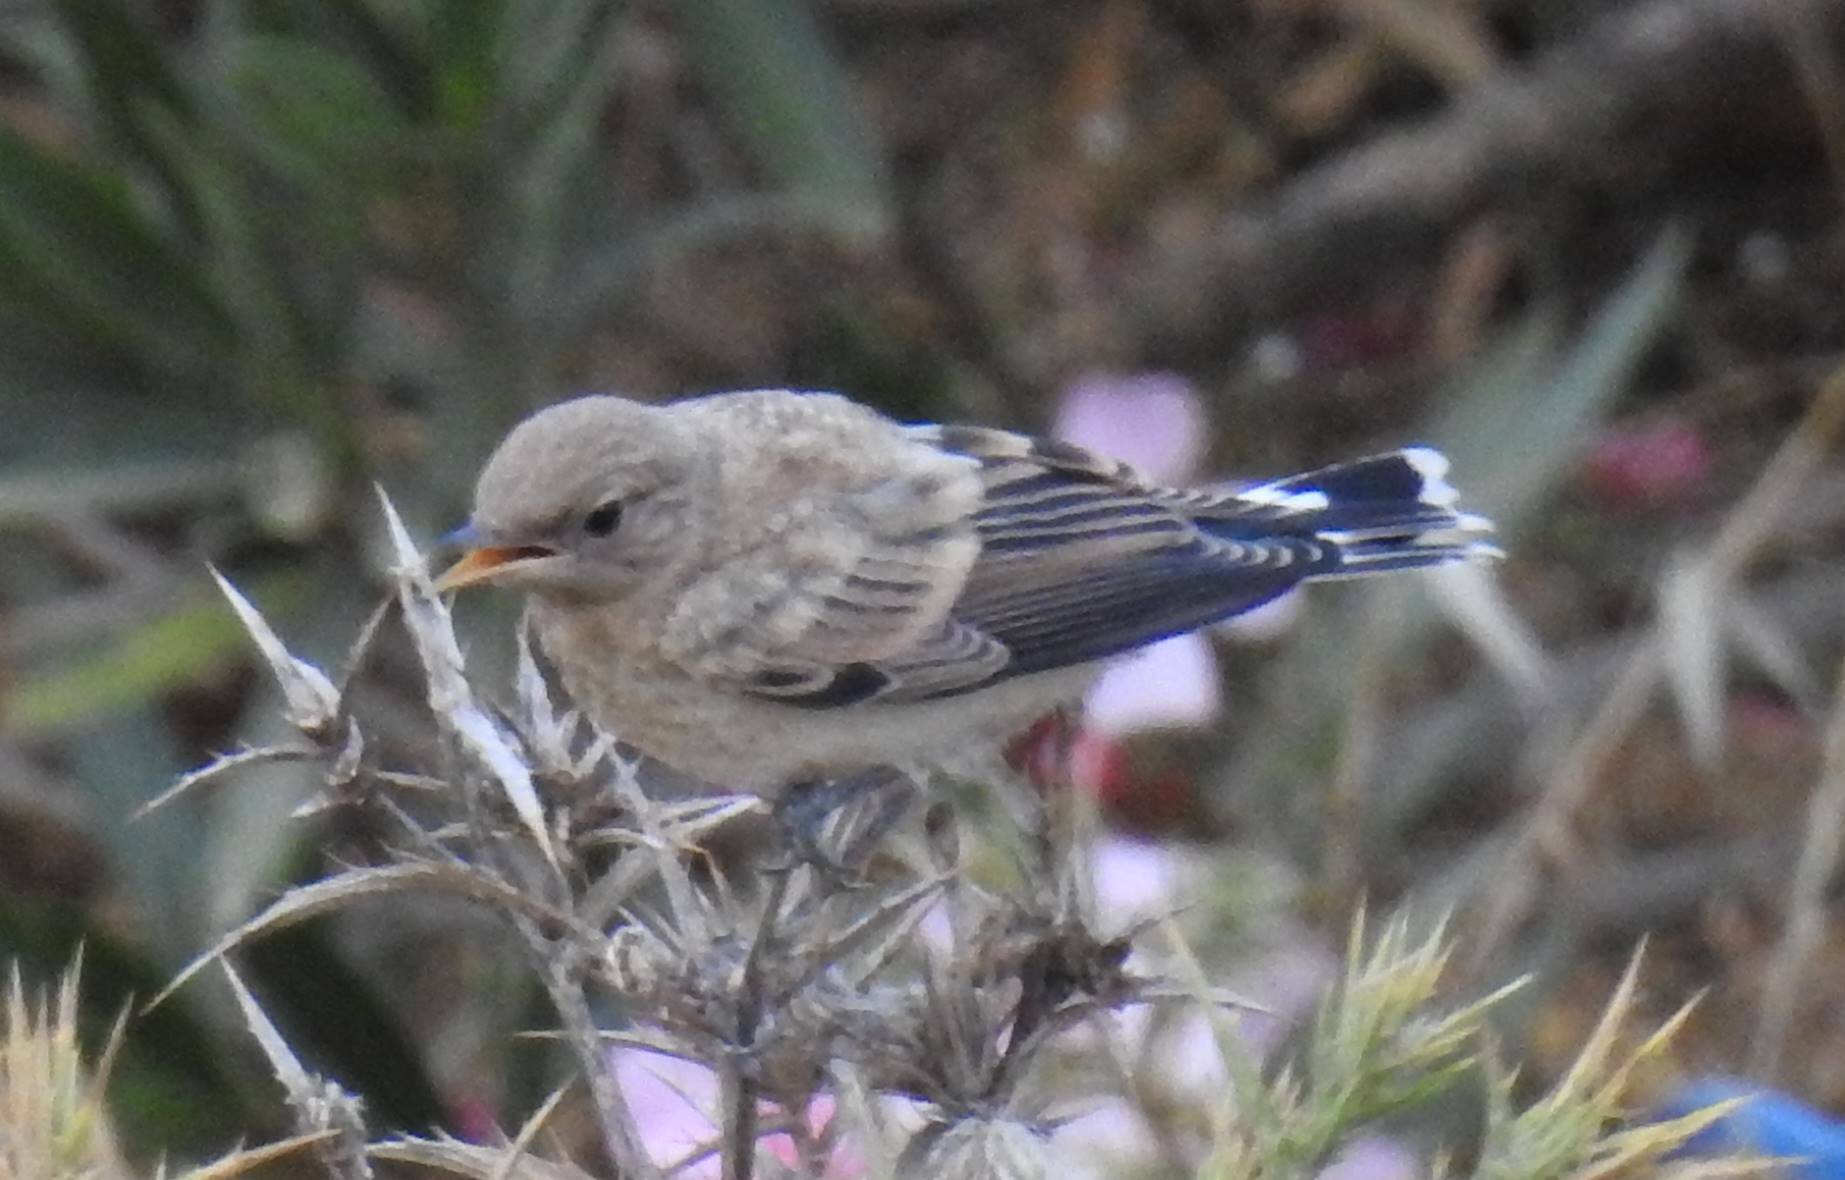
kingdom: Animalia
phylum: Chordata
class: Aves
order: Passeriformes
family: Muscicapidae
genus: Oenanthe
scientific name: Oenanthe hispanica
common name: Black-eared wheatear
